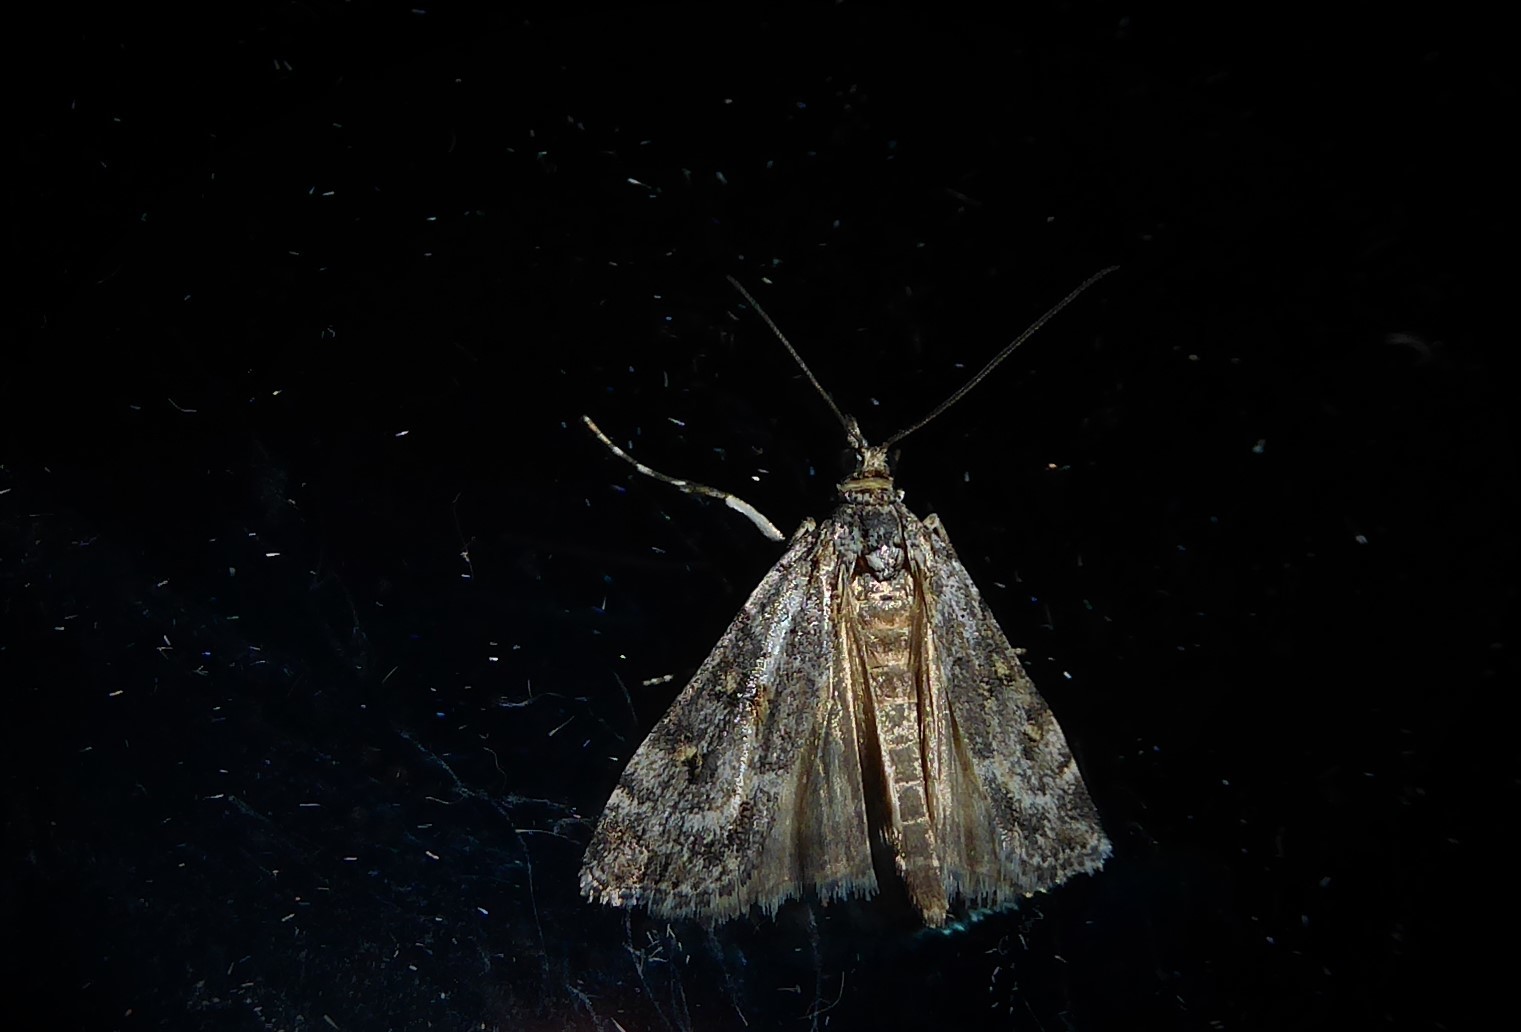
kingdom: Animalia
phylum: Arthropoda
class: Insecta
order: Lepidoptera
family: Crambidae
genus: Eudonia
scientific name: Eudonia diphtheralis
